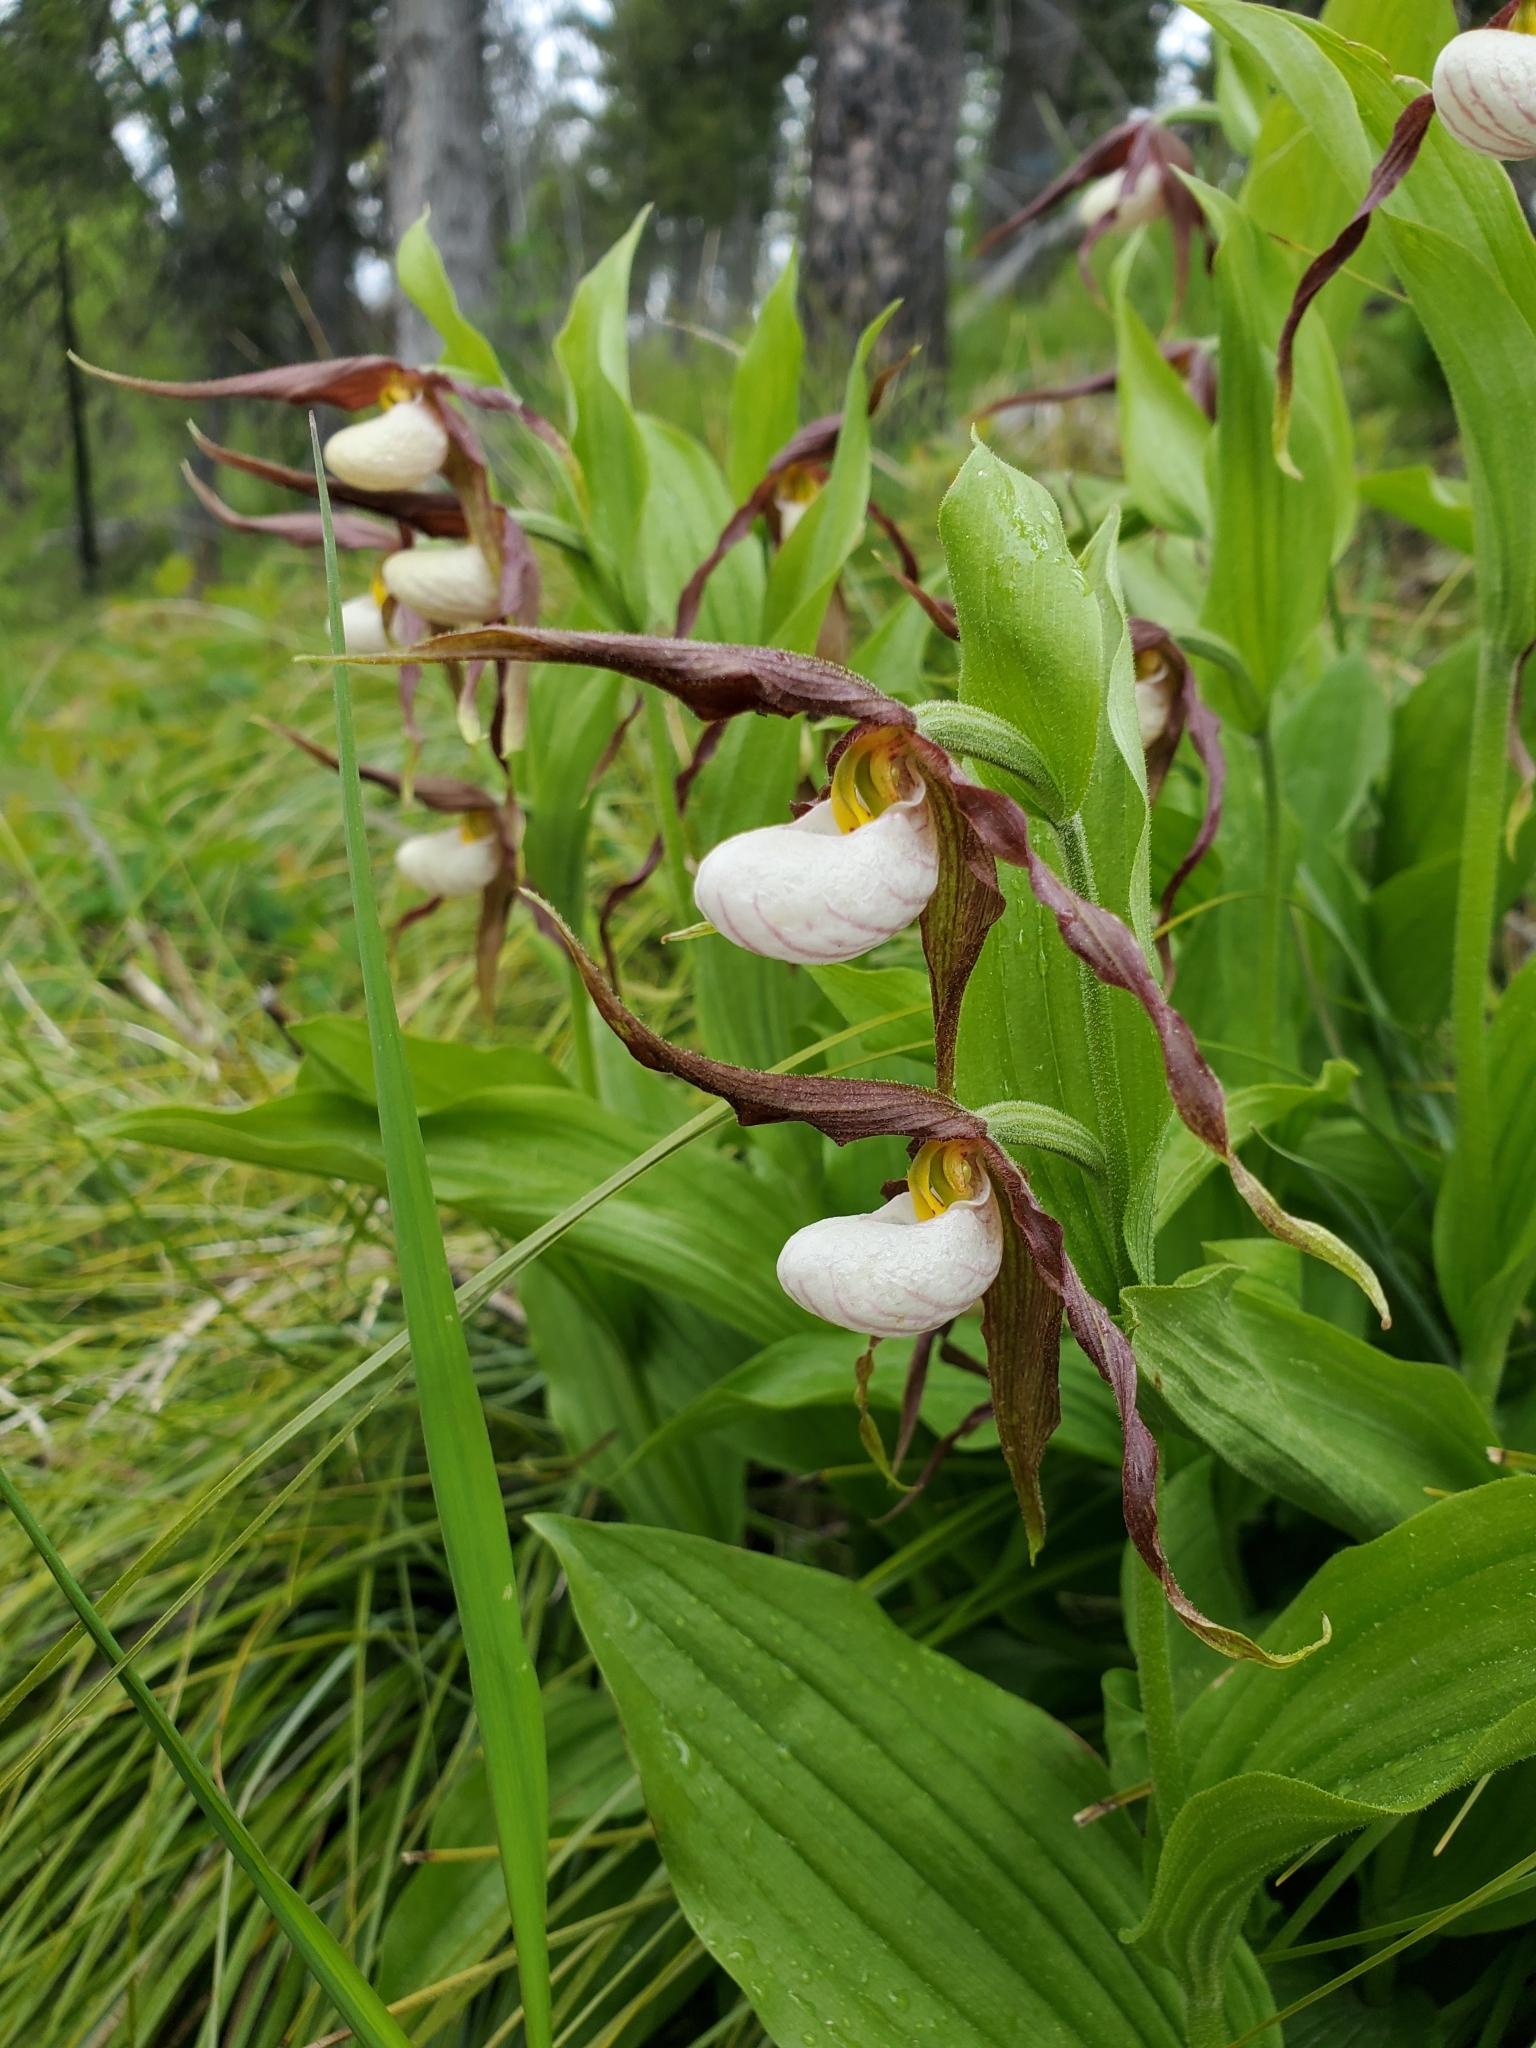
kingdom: Plantae
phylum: Tracheophyta
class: Liliopsida
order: Asparagales
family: Orchidaceae
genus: Cypripedium
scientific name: Cypripedium montanum
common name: Mountain lady's-slipper
